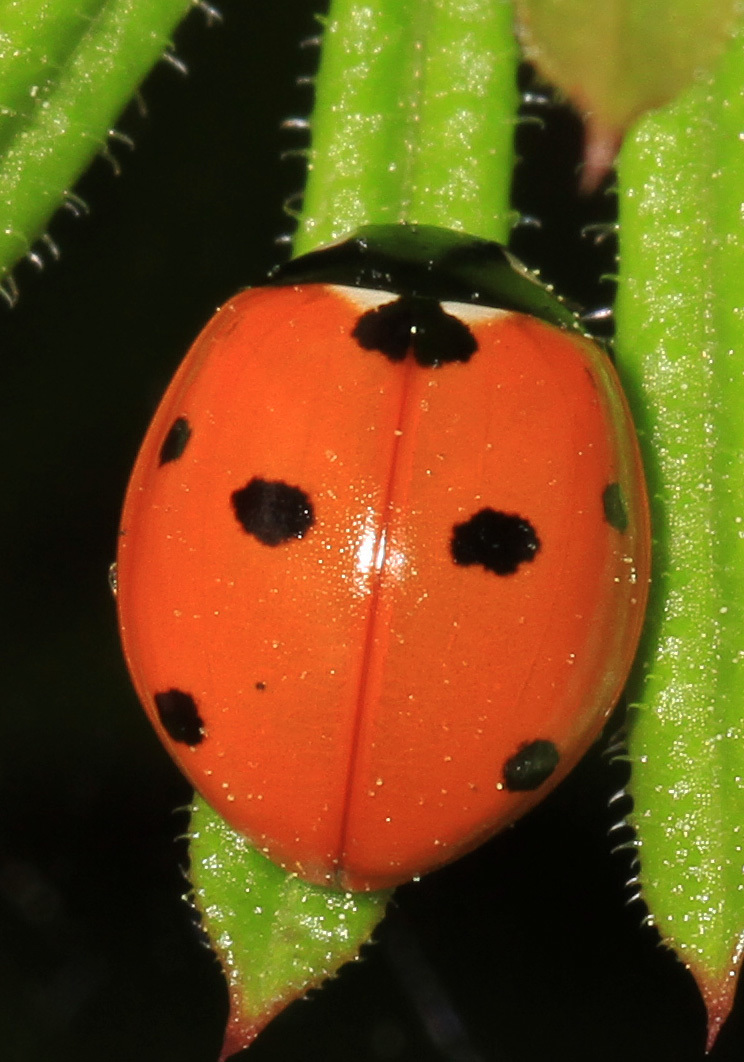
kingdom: Animalia
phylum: Arthropoda
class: Insecta
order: Coleoptera
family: Coccinellidae
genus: Coccinella
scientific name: Coccinella septempunctata
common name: Sevenspotted lady beetle
